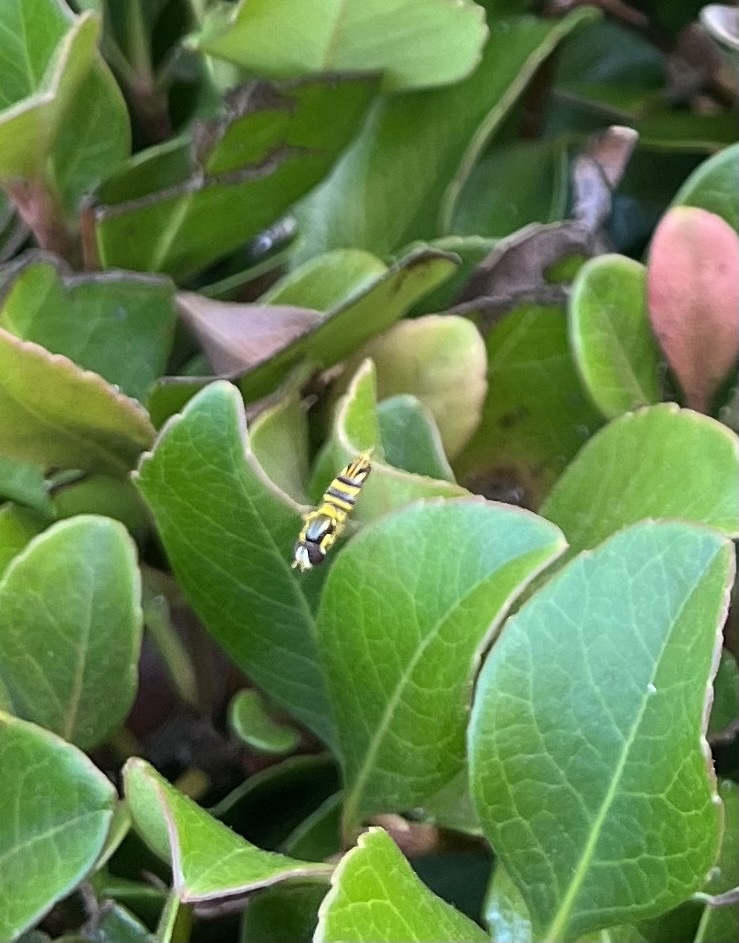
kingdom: Animalia
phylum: Arthropoda
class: Insecta
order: Diptera
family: Syrphidae
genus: Allograpta
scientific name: Allograpta obliqua
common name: Common oblique syrphid
